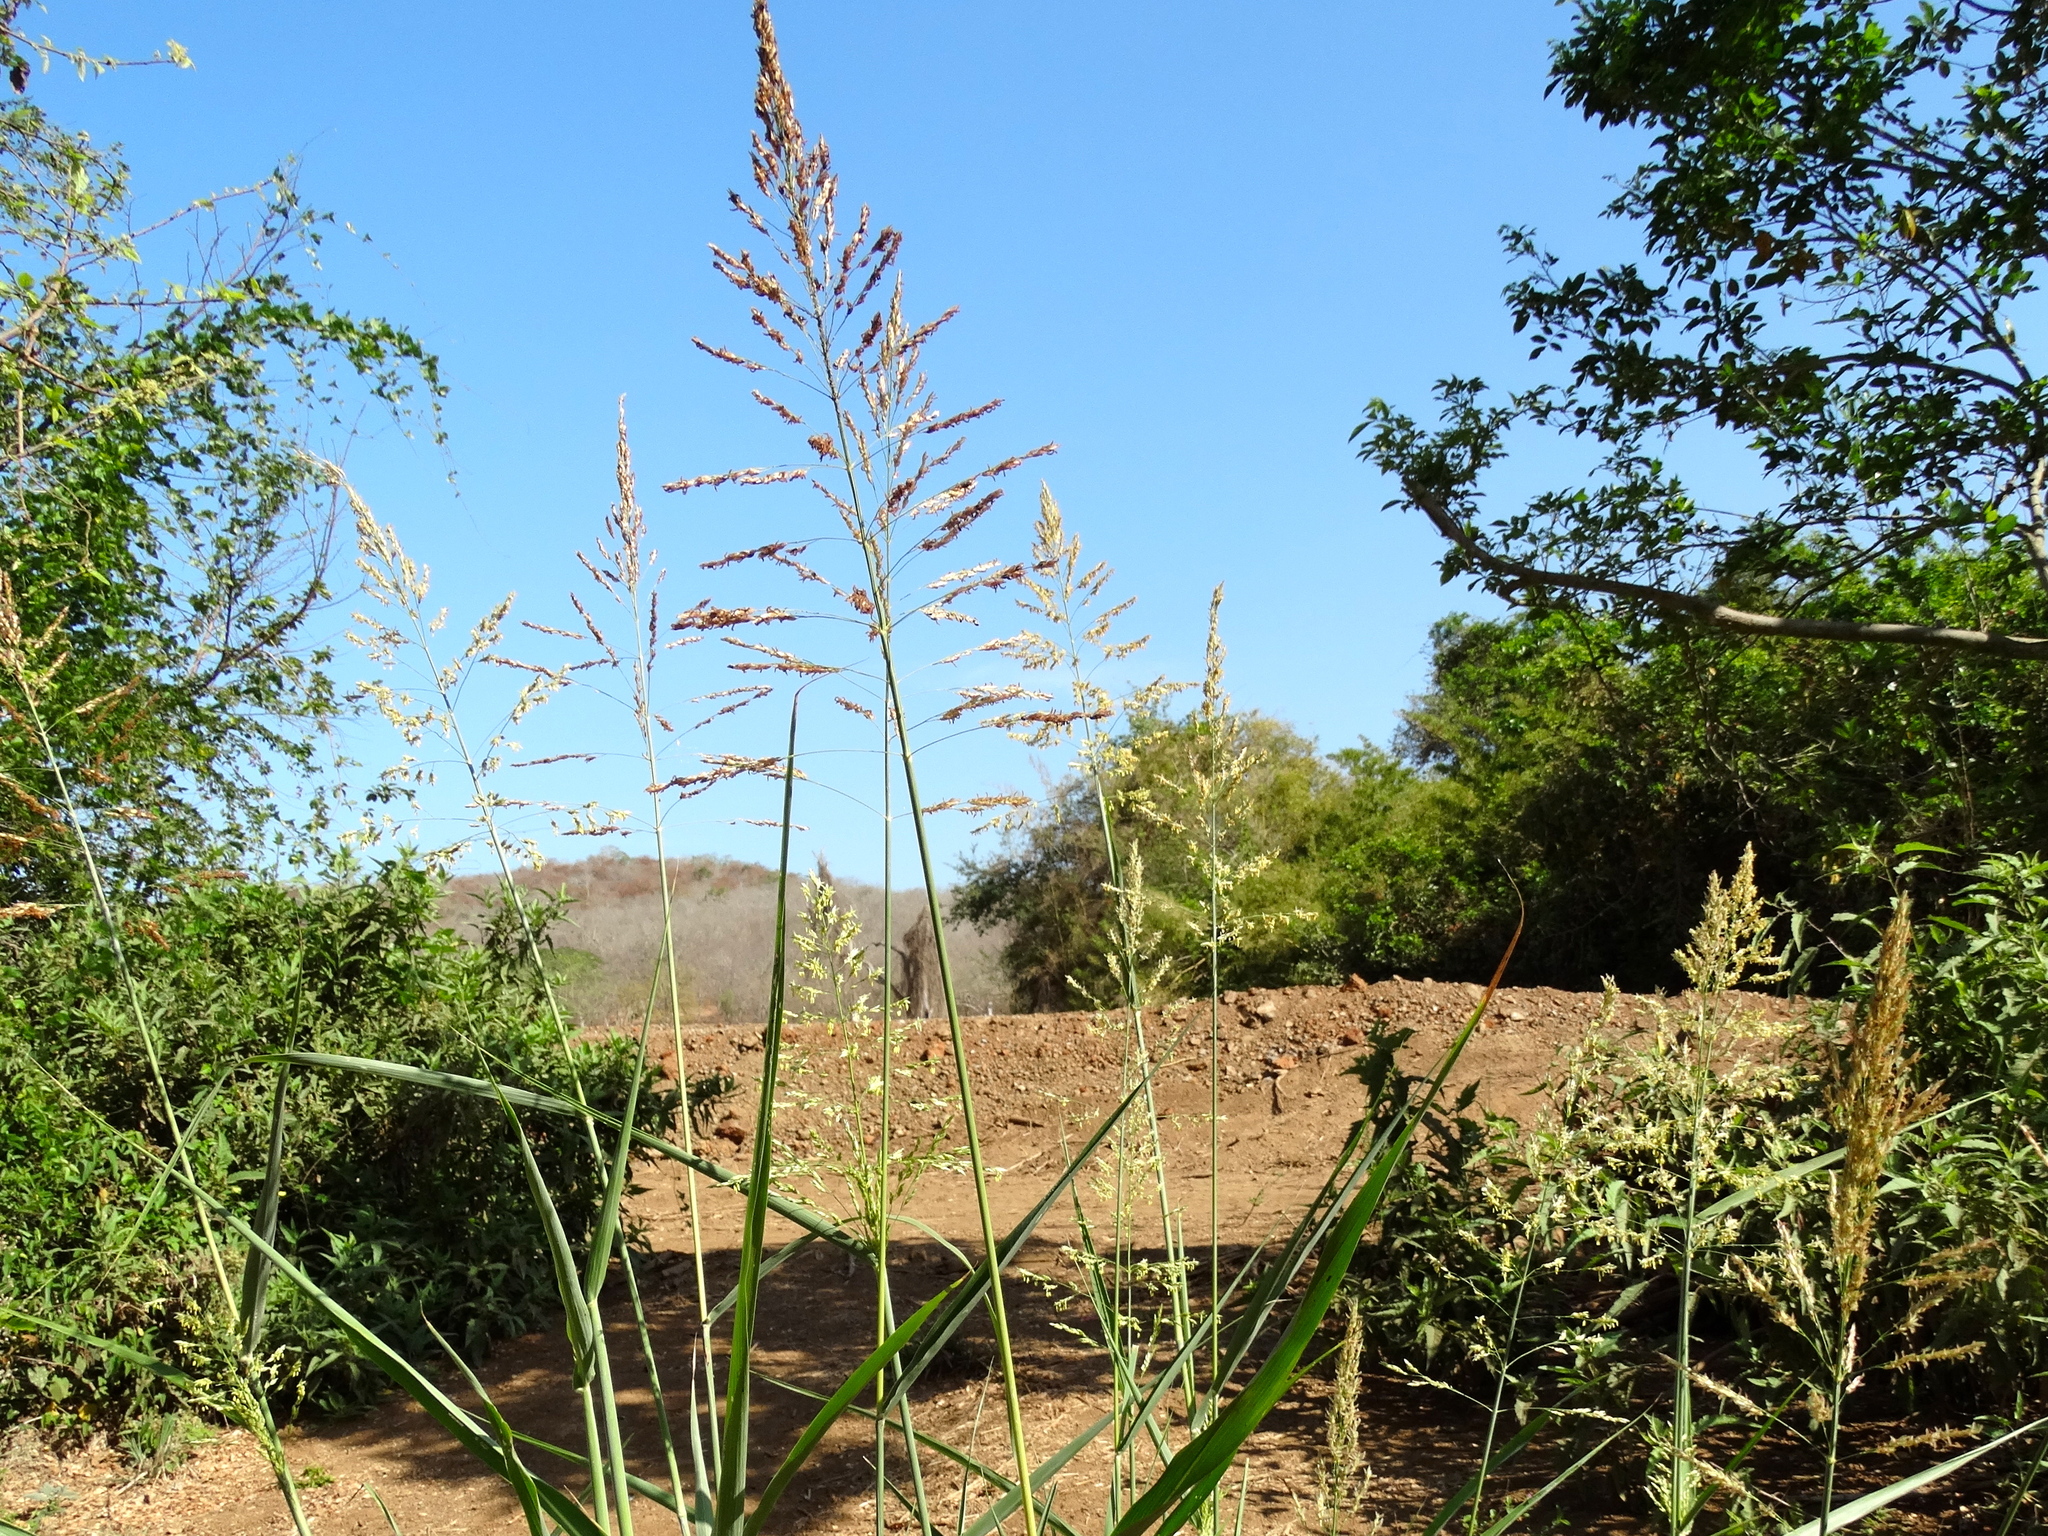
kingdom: Plantae
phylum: Tracheophyta
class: Liliopsida
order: Poales
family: Poaceae
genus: Sorghum
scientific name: Sorghum halepense
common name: Johnson-grass
